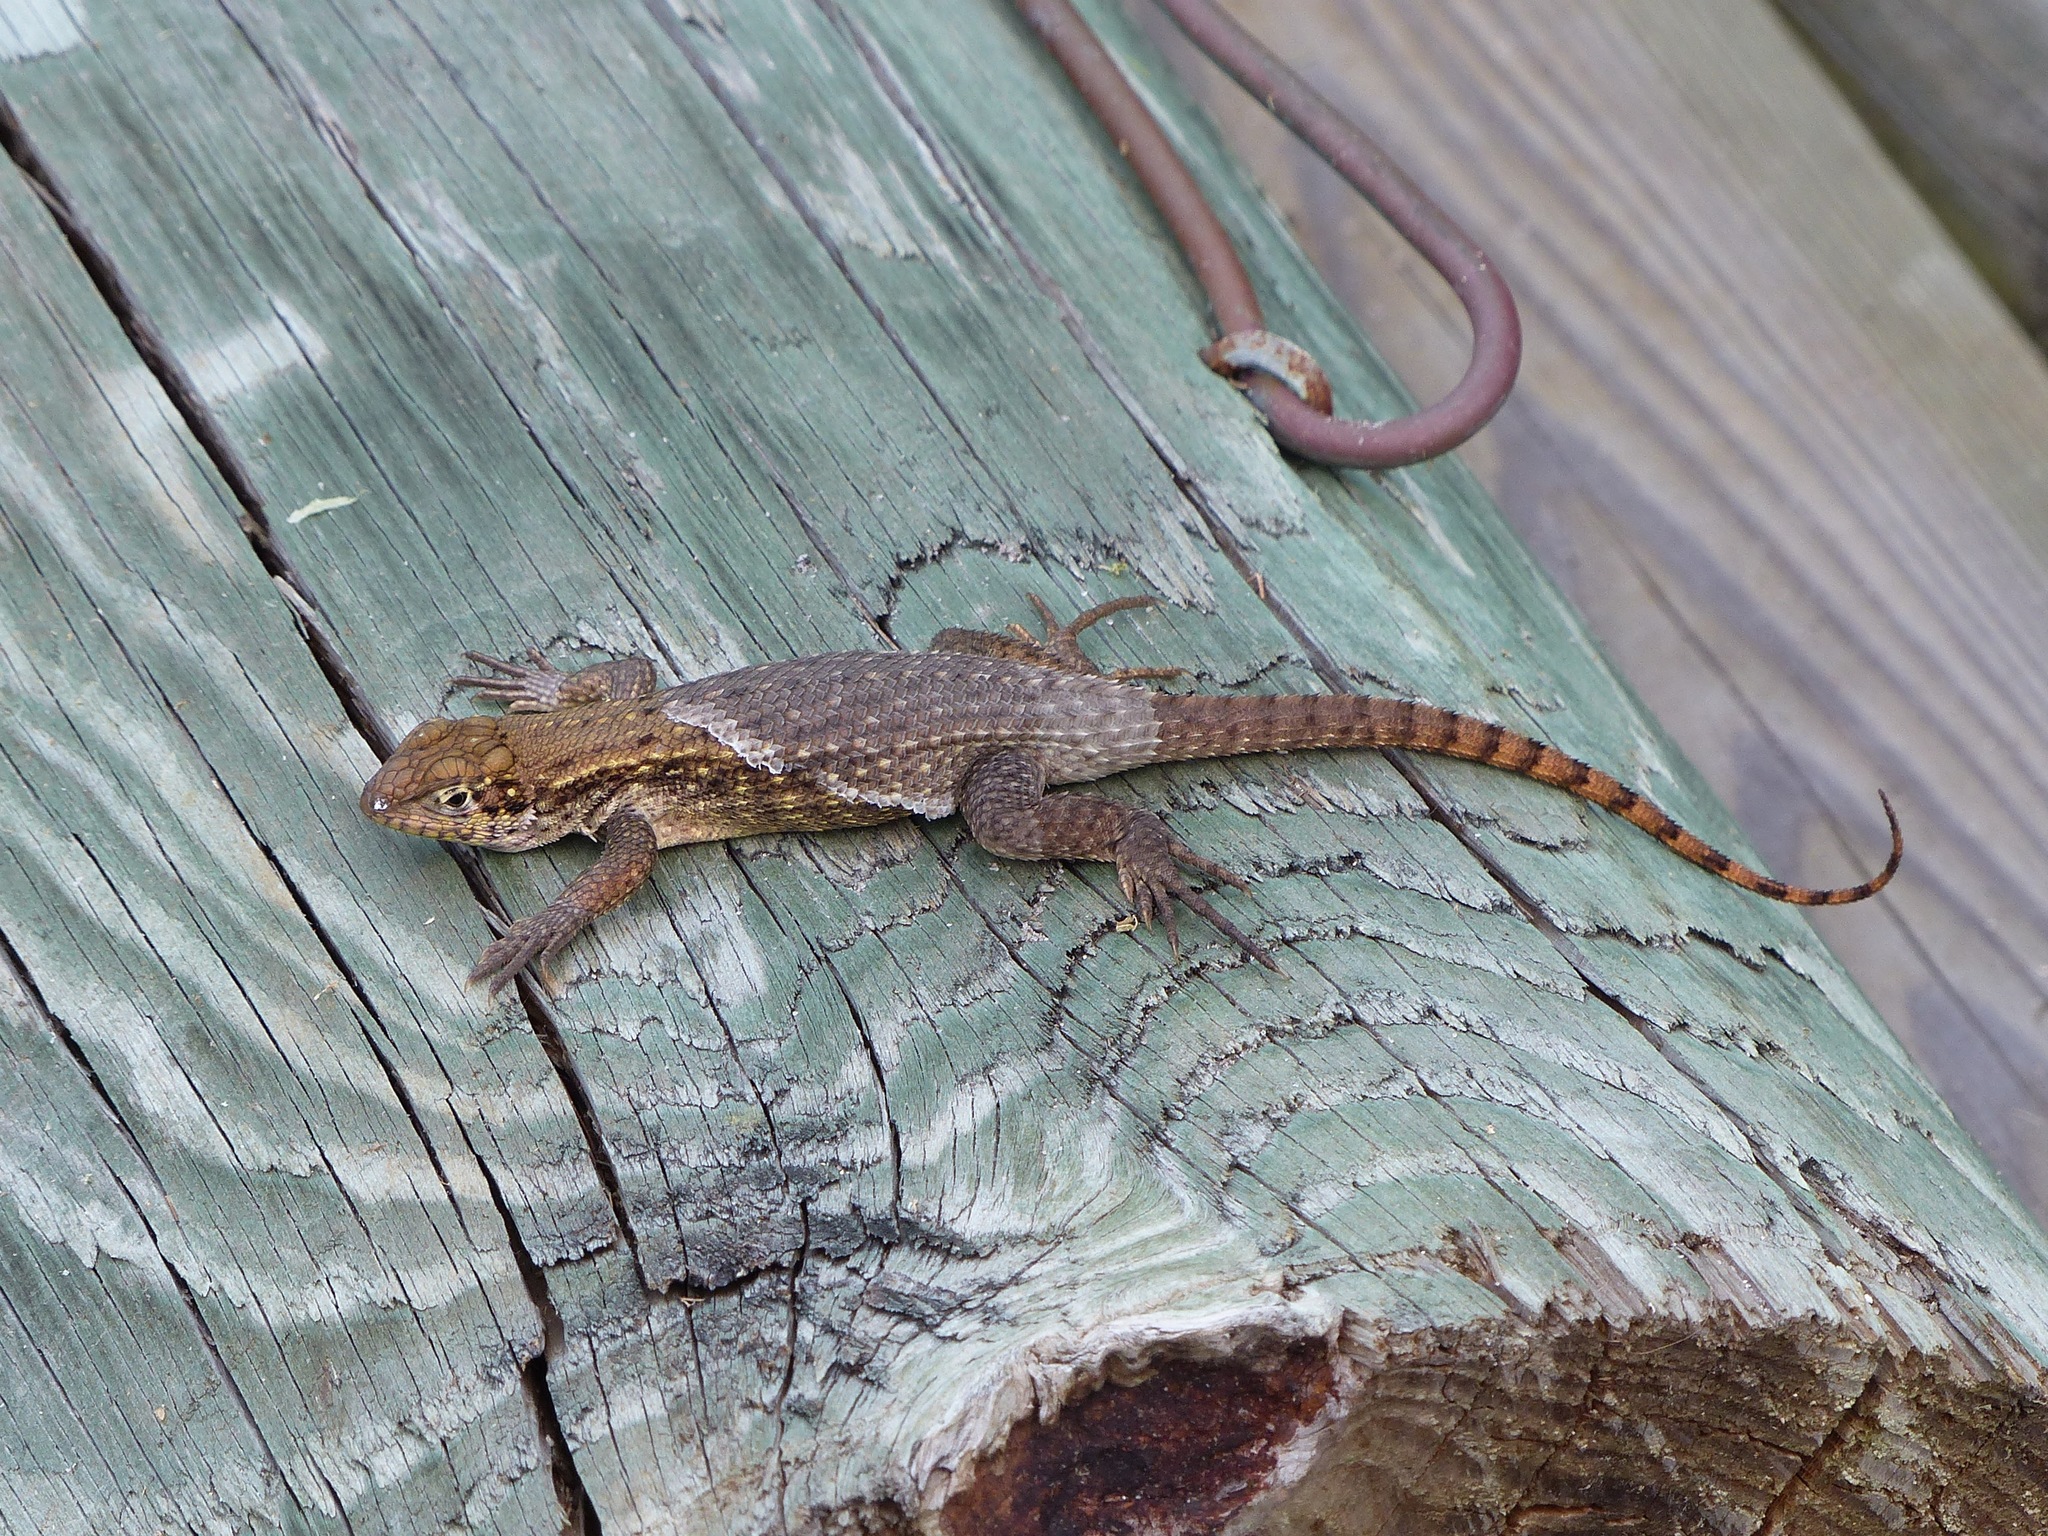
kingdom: Animalia
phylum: Chordata
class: Squamata
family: Leiocephalidae
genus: Leiocephalus
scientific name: Leiocephalus carinatus
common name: Northern curly-tailed lizard
